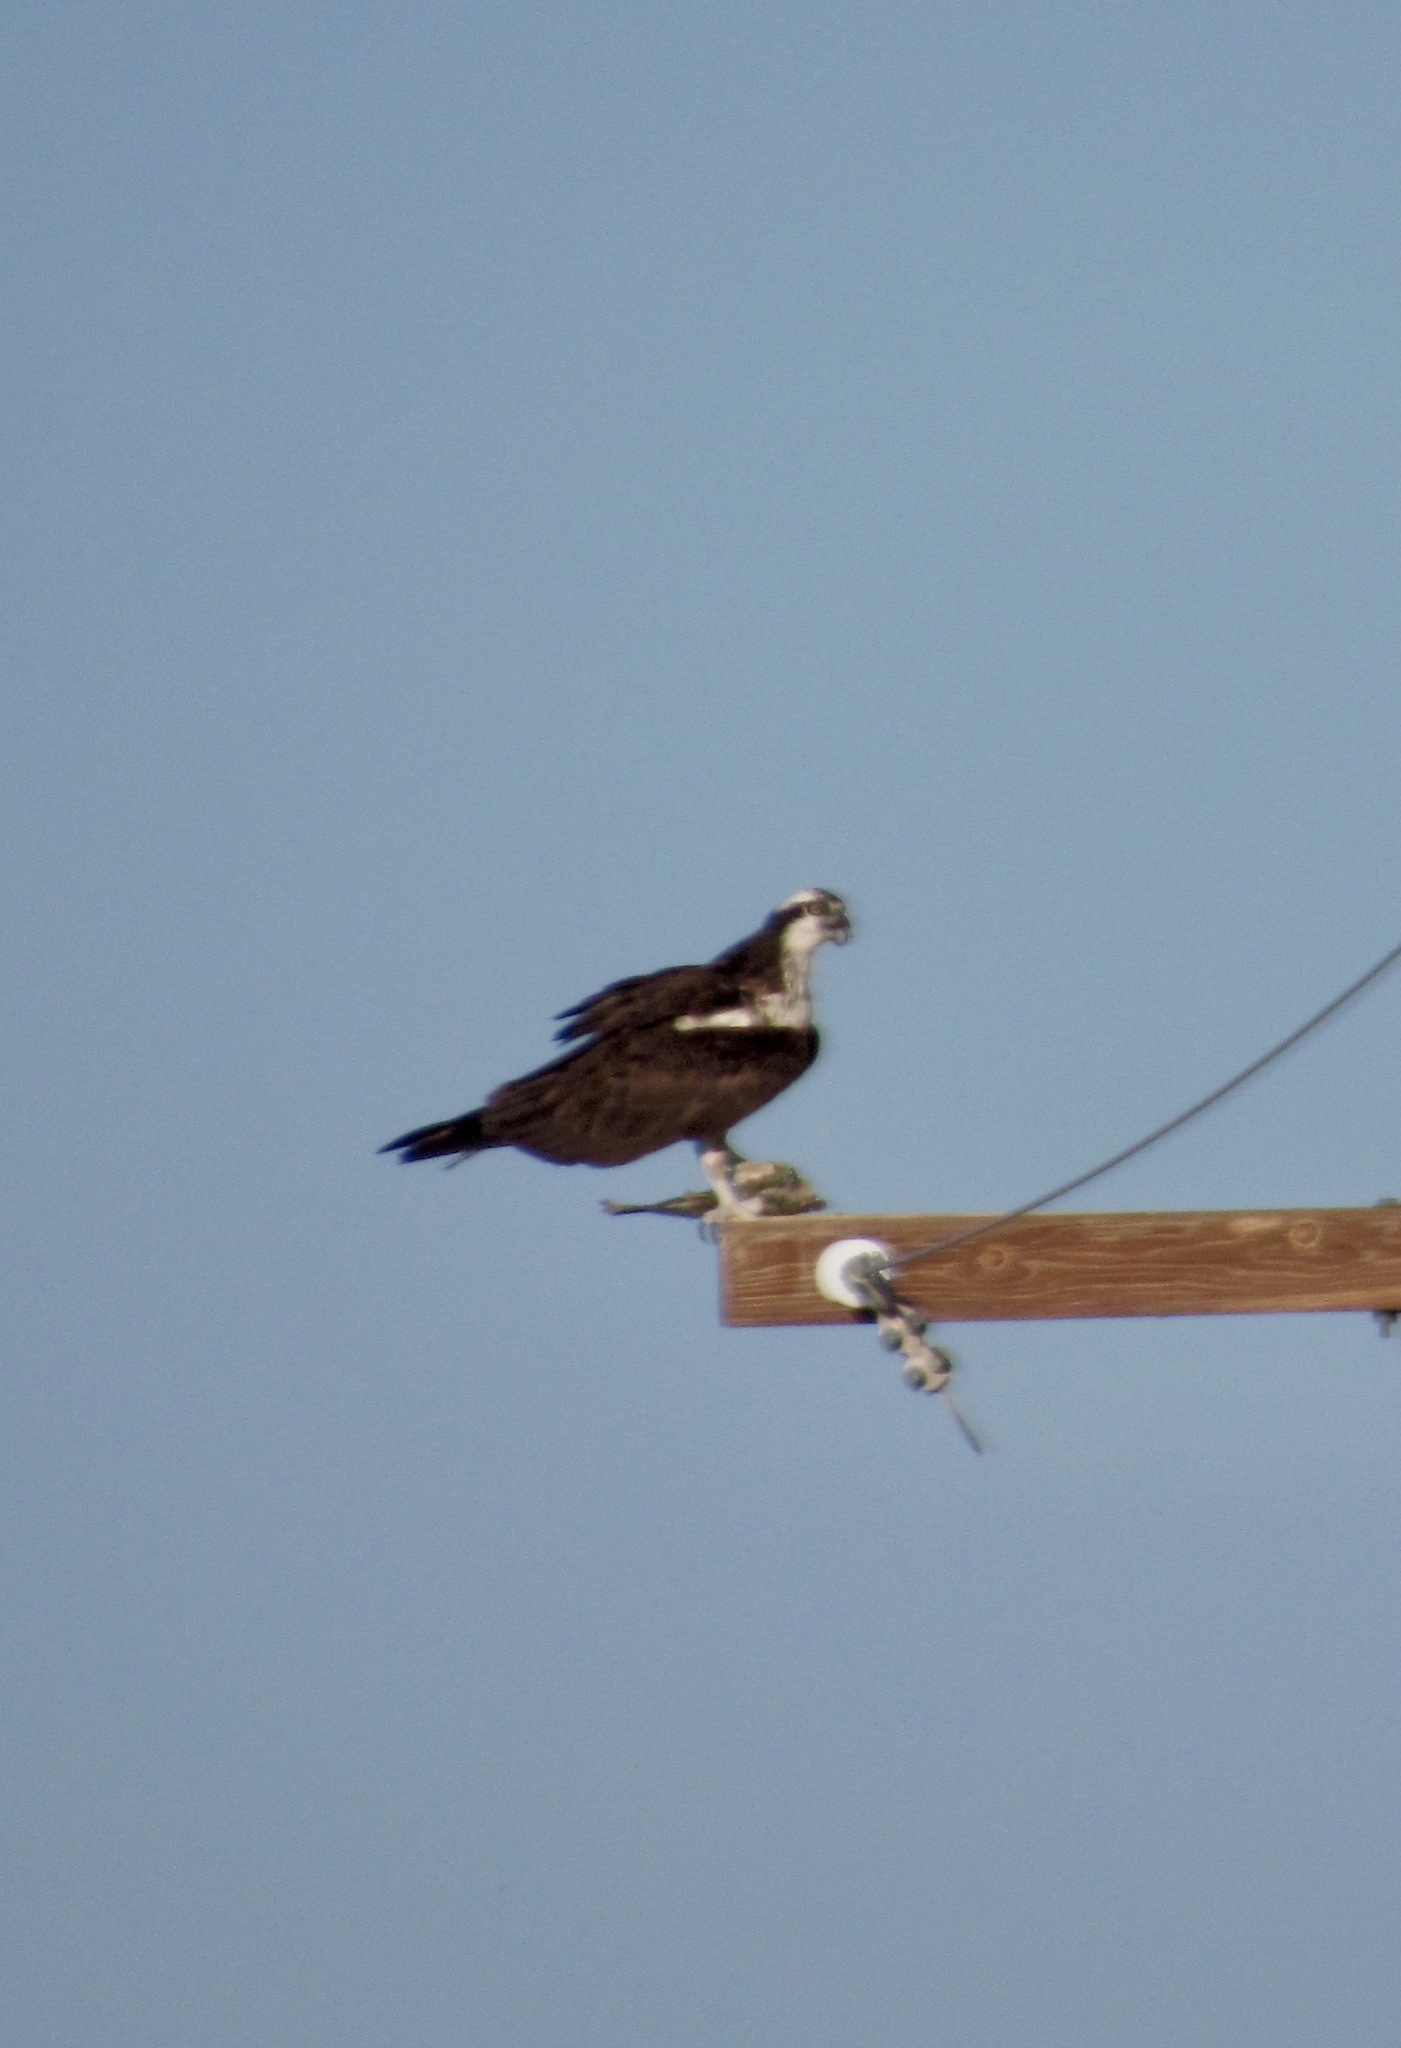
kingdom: Animalia
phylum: Chordata
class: Aves
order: Accipitriformes
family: Pandionidae
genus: Pandion
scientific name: Pandion haliaetus
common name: Osprey
